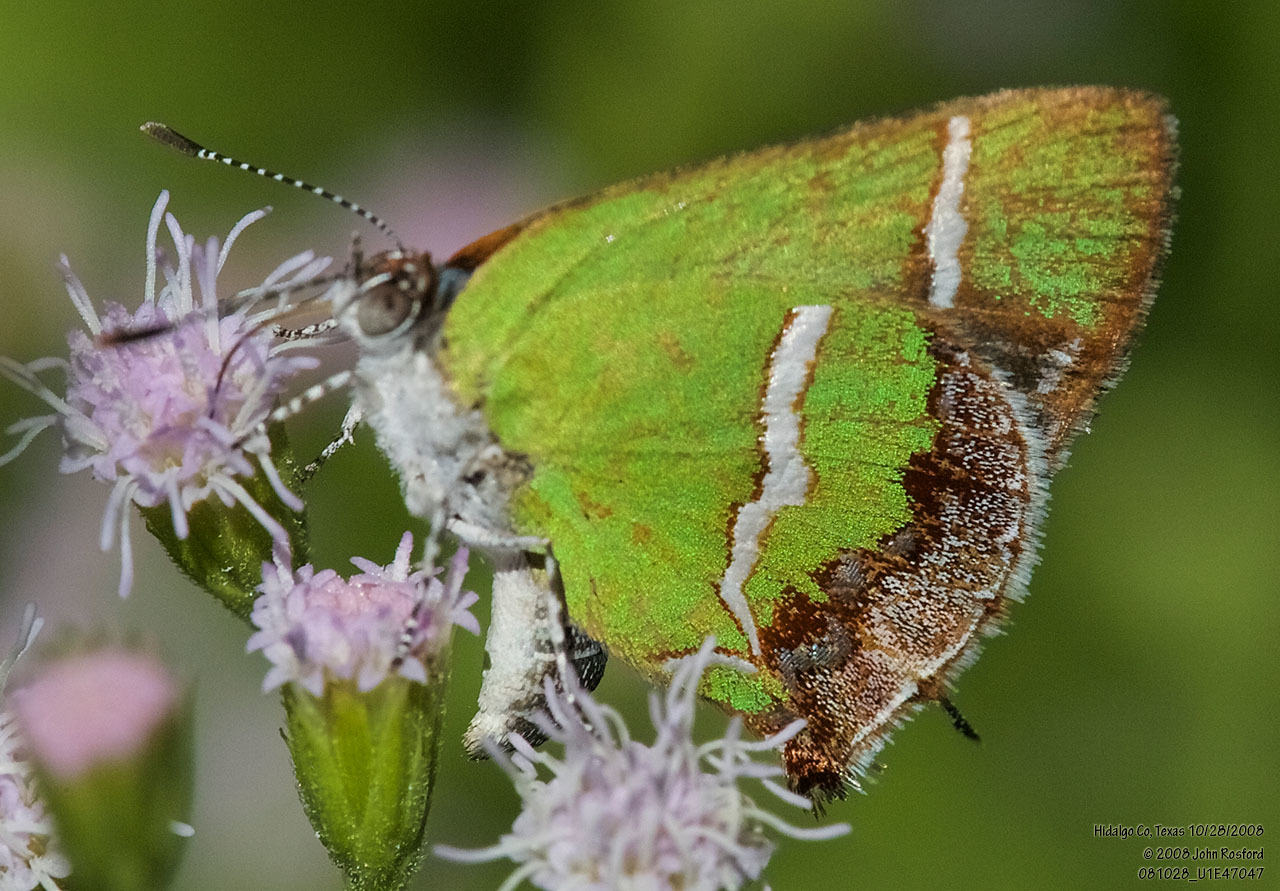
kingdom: Animalia
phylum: Arthropoda
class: Insecta
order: Lepidoptera
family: Lycaenidae
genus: Chlorostrymon
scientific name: Chlorostrymon simaethis
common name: Silver-banded hairstreak
